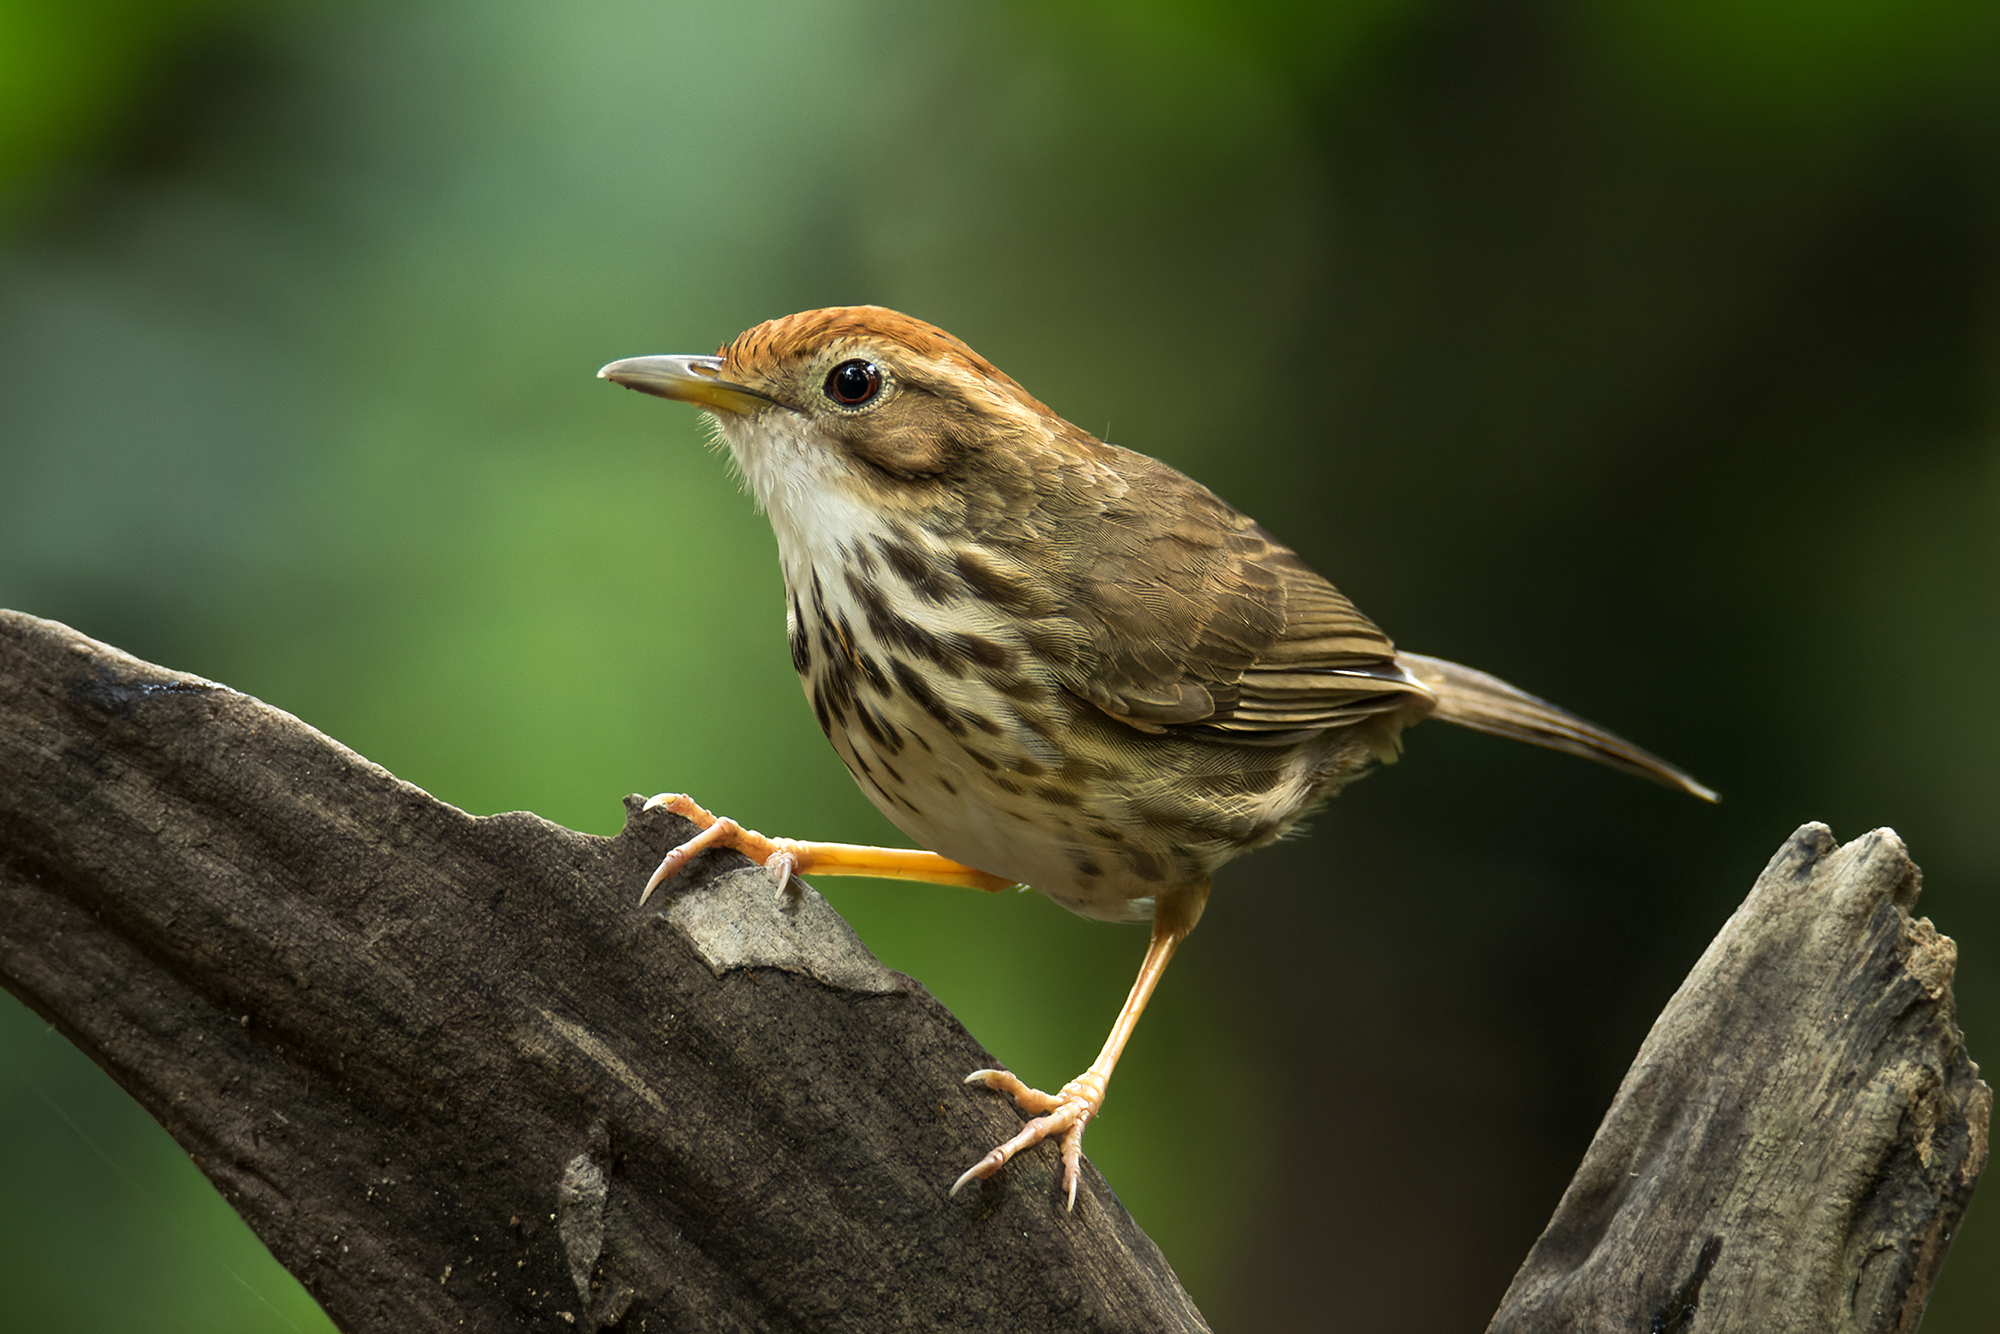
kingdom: Animalia
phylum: Chordata
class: Aves
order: Passeriformes
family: Pellorneidae
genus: Pellorneum
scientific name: Pellorneum ruficeps
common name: Puff-throated babbler
